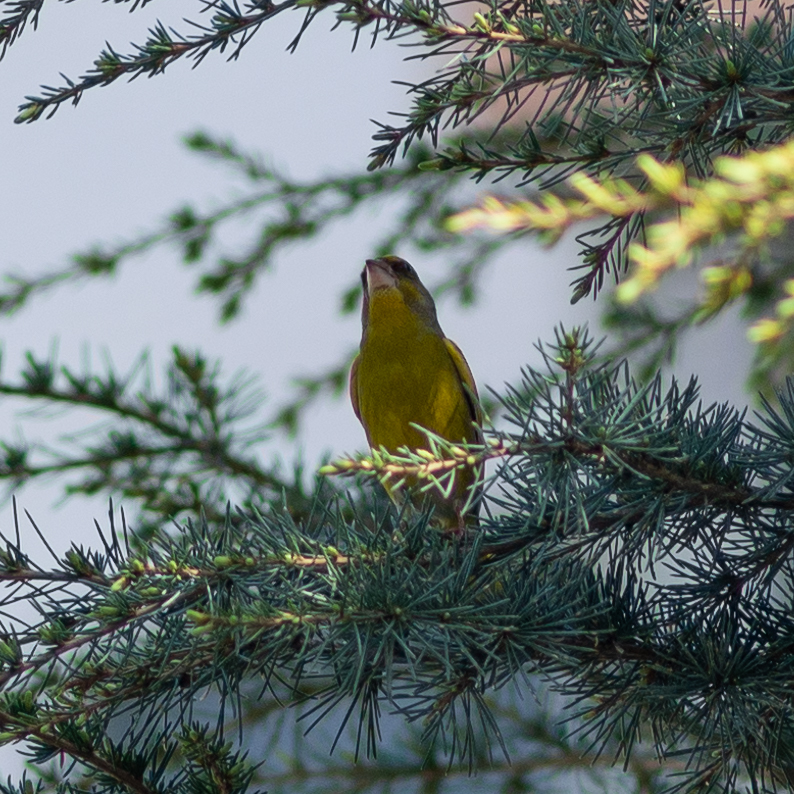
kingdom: Plantae
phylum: Tracheophyta
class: Liliopsida
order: Poales
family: Poaceae
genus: Chloris
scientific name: Chloris chloris
